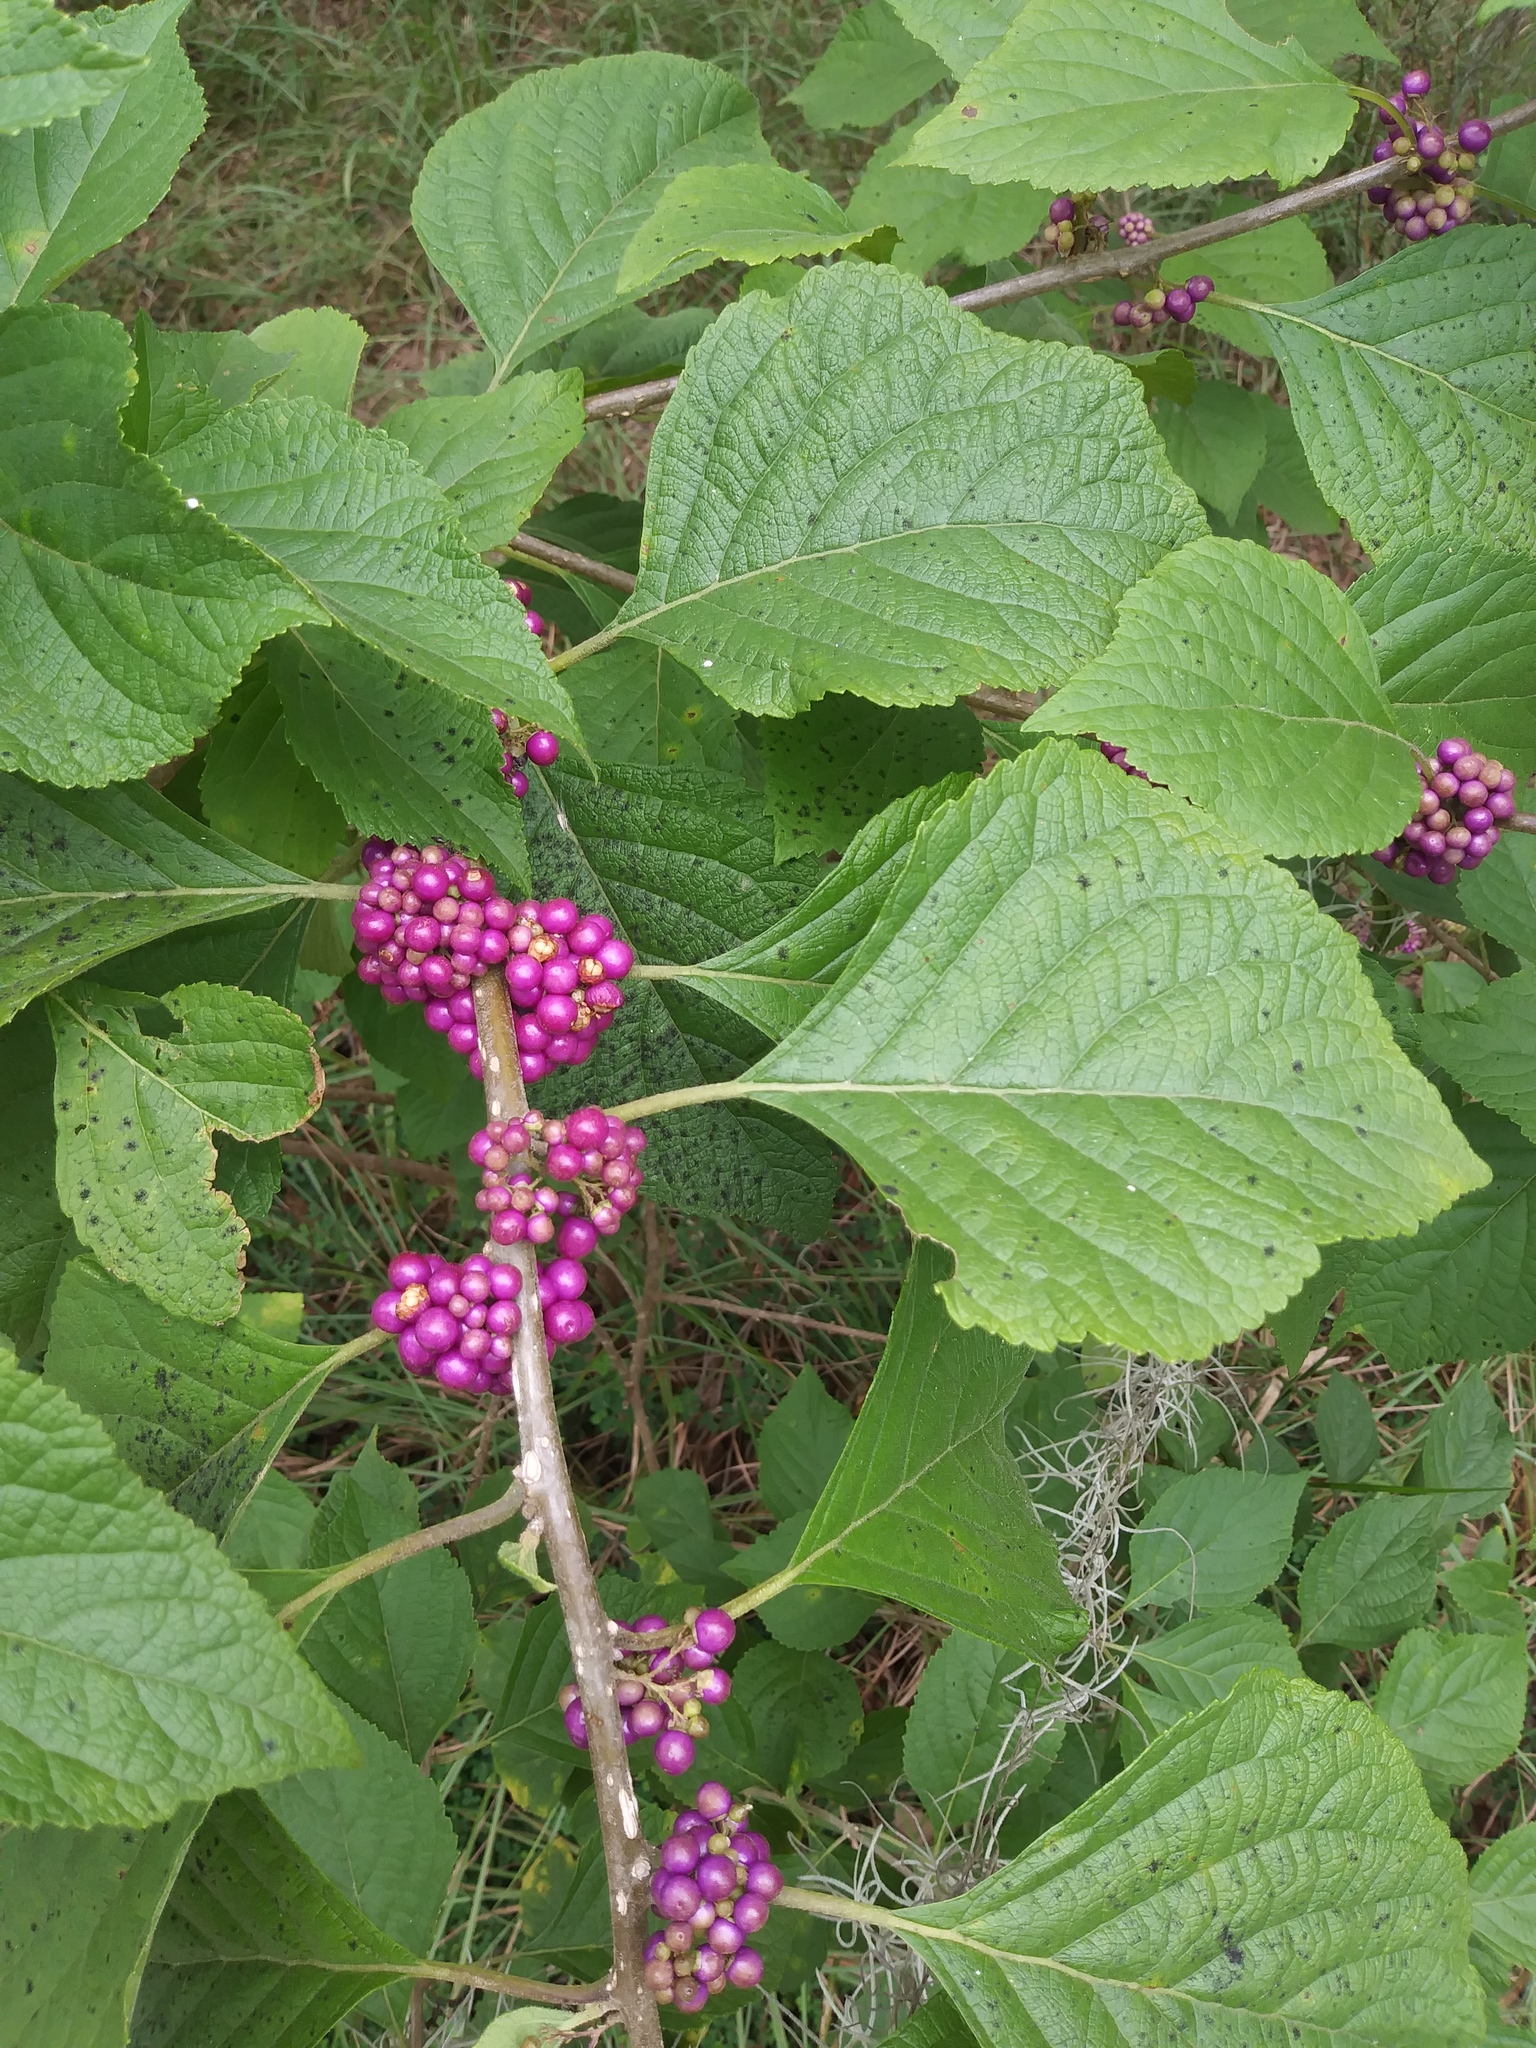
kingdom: Plantae
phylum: Tracheophyta
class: Magnoliopsida
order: Lamiales
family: Lamiaceae
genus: Callicarpa
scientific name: Callicarpa americana
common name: American beautyberry
